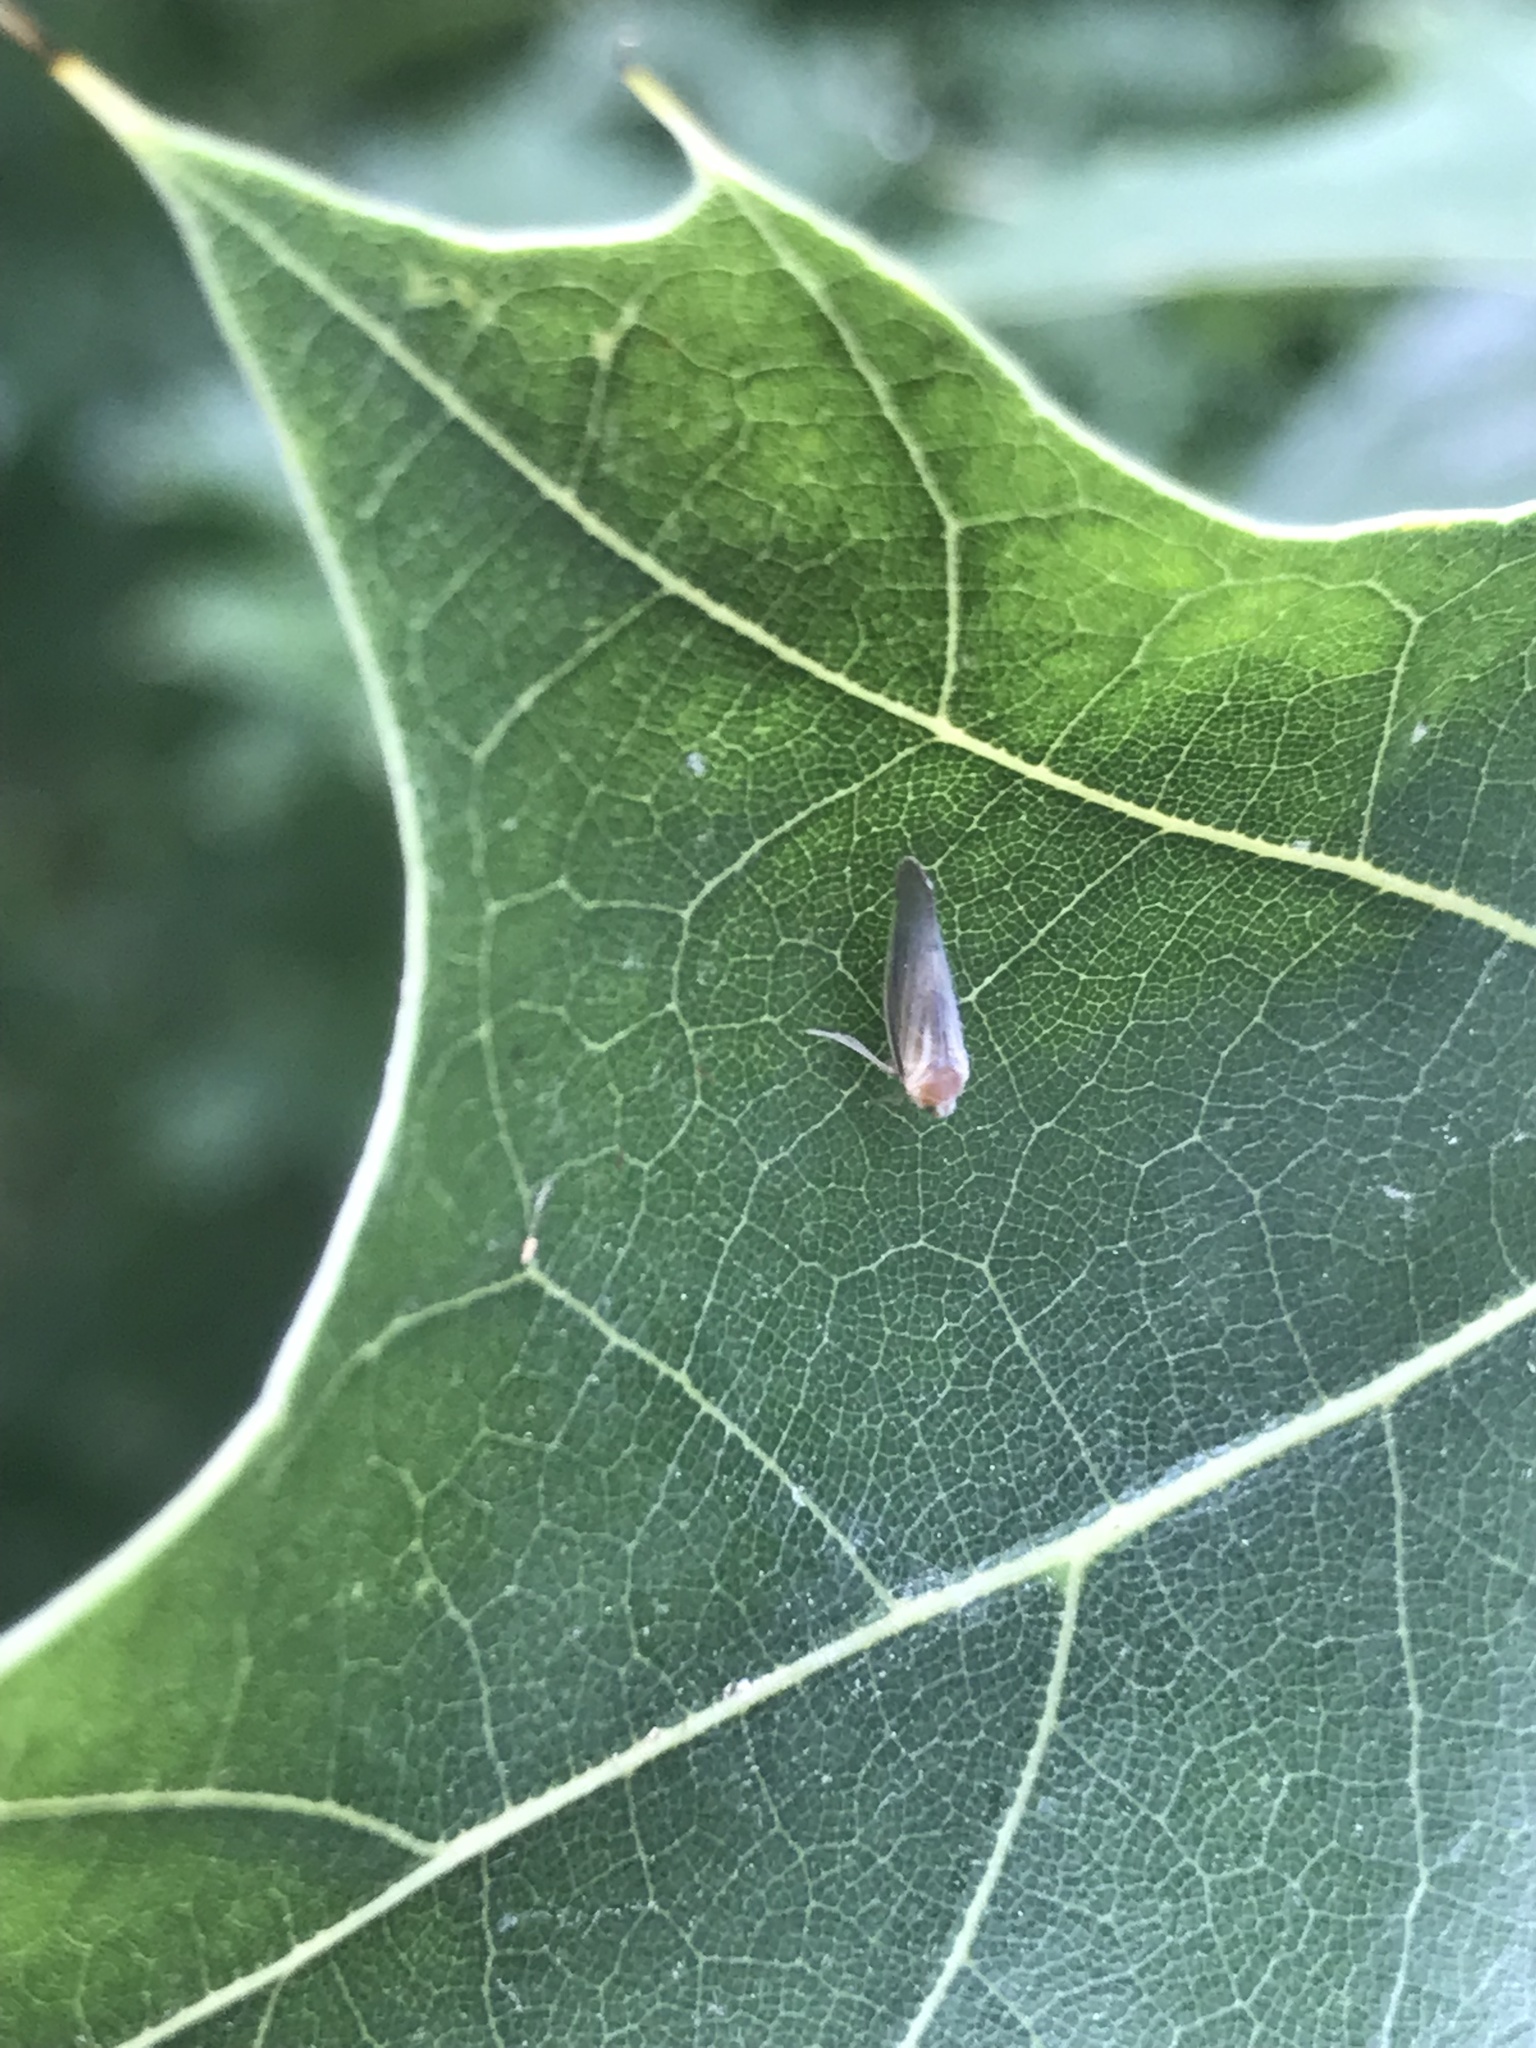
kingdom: Animalia
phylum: Arthropoda
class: Insecta
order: Hemiptera
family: Derbidae
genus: Omolicna
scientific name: Omolicna uhleri
